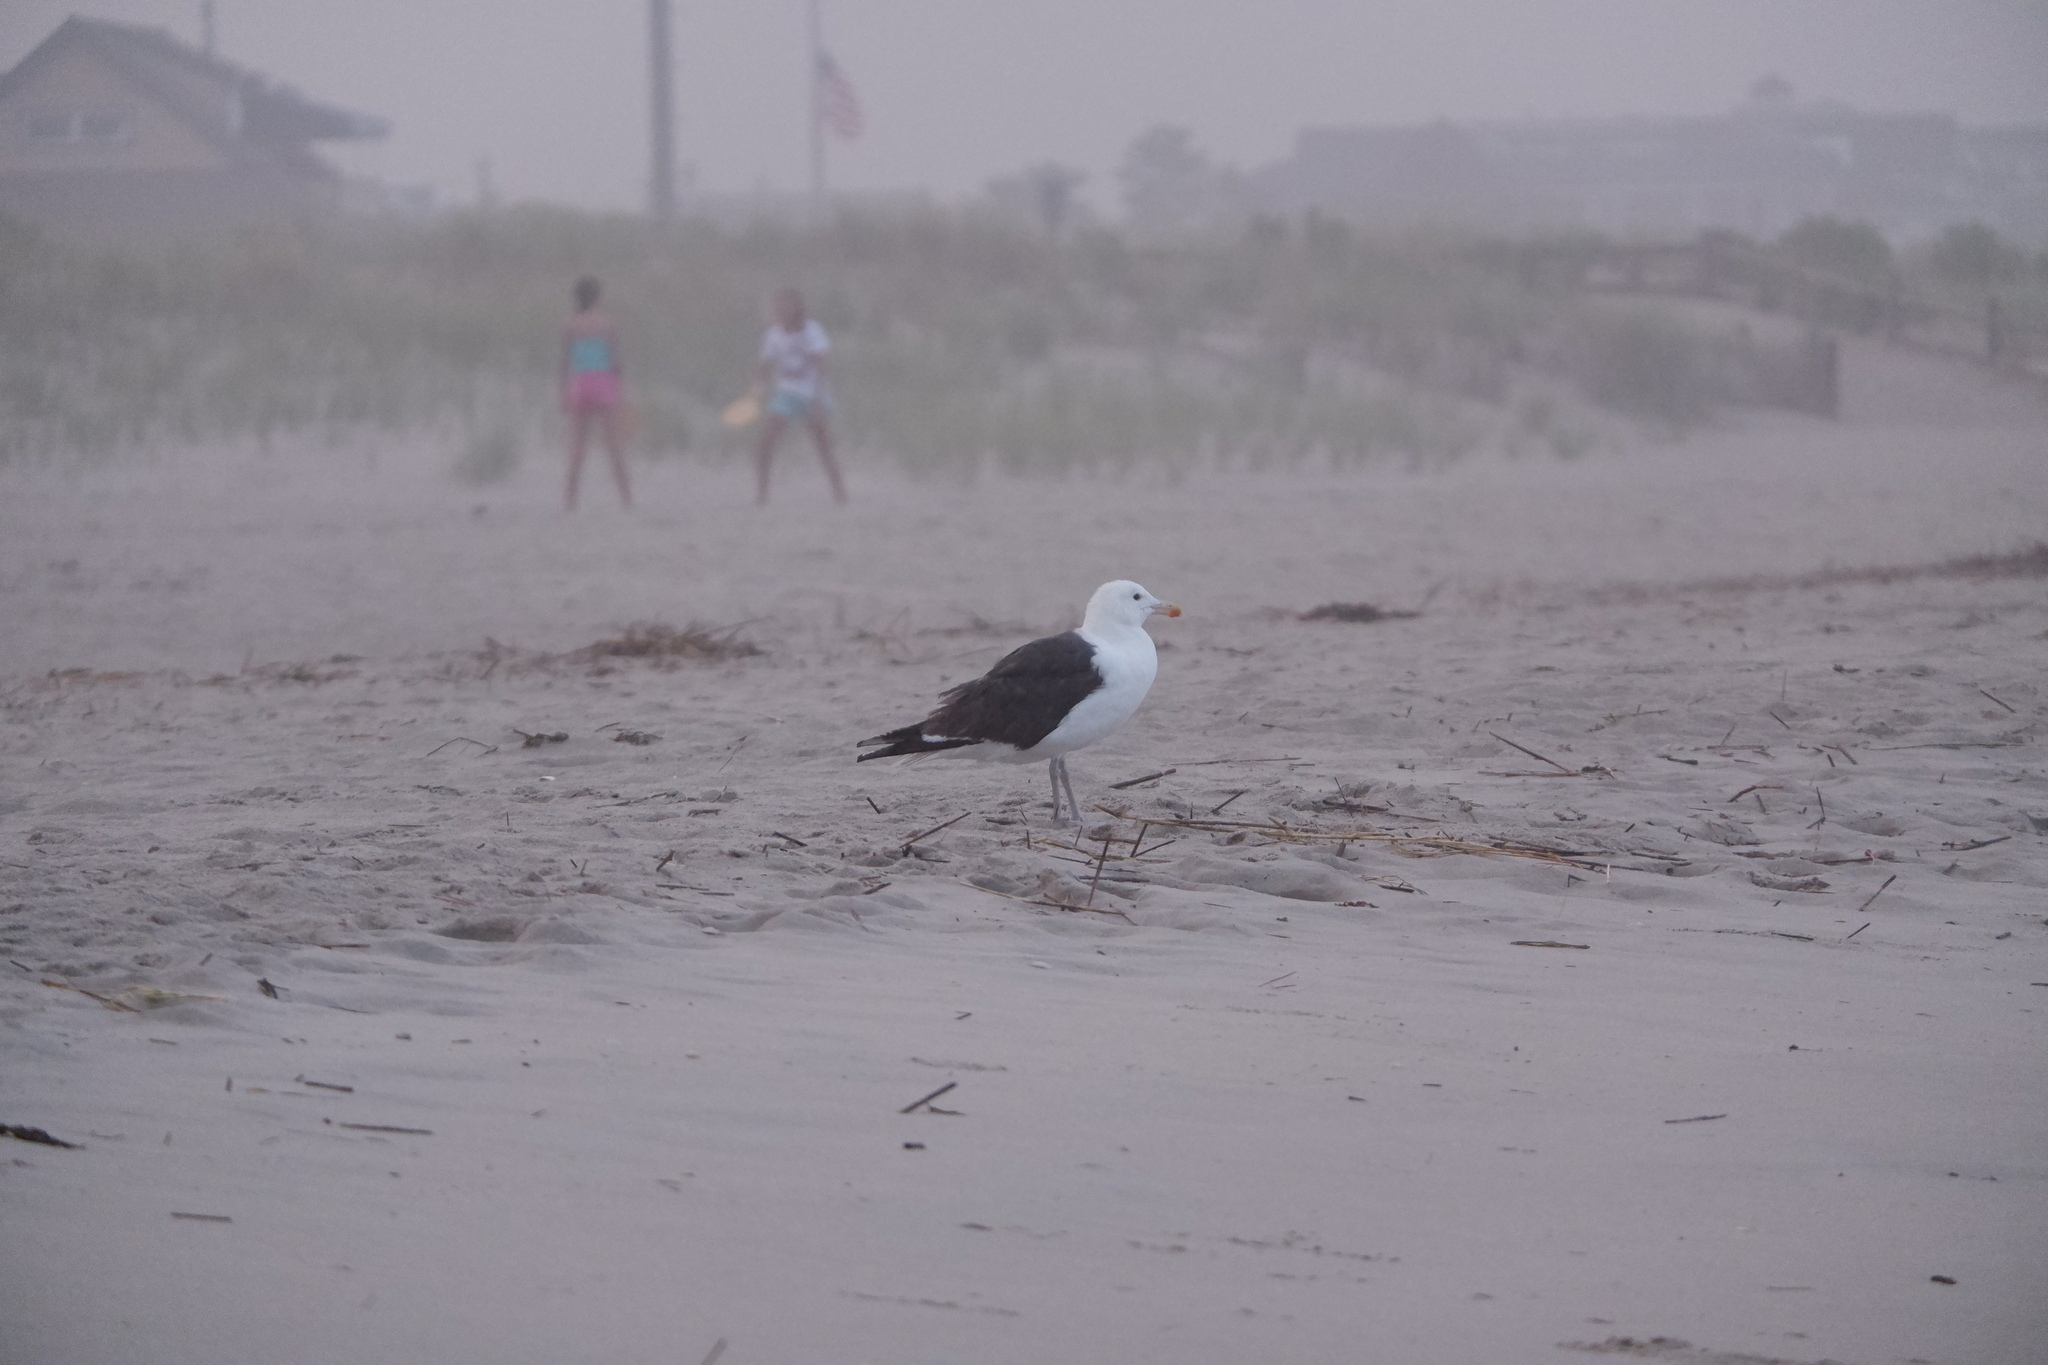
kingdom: Animalia
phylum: Chordata
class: Aves
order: Charadriiformes
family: Laridae
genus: Larus
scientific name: Larus marinus
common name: Great black-backed gull
